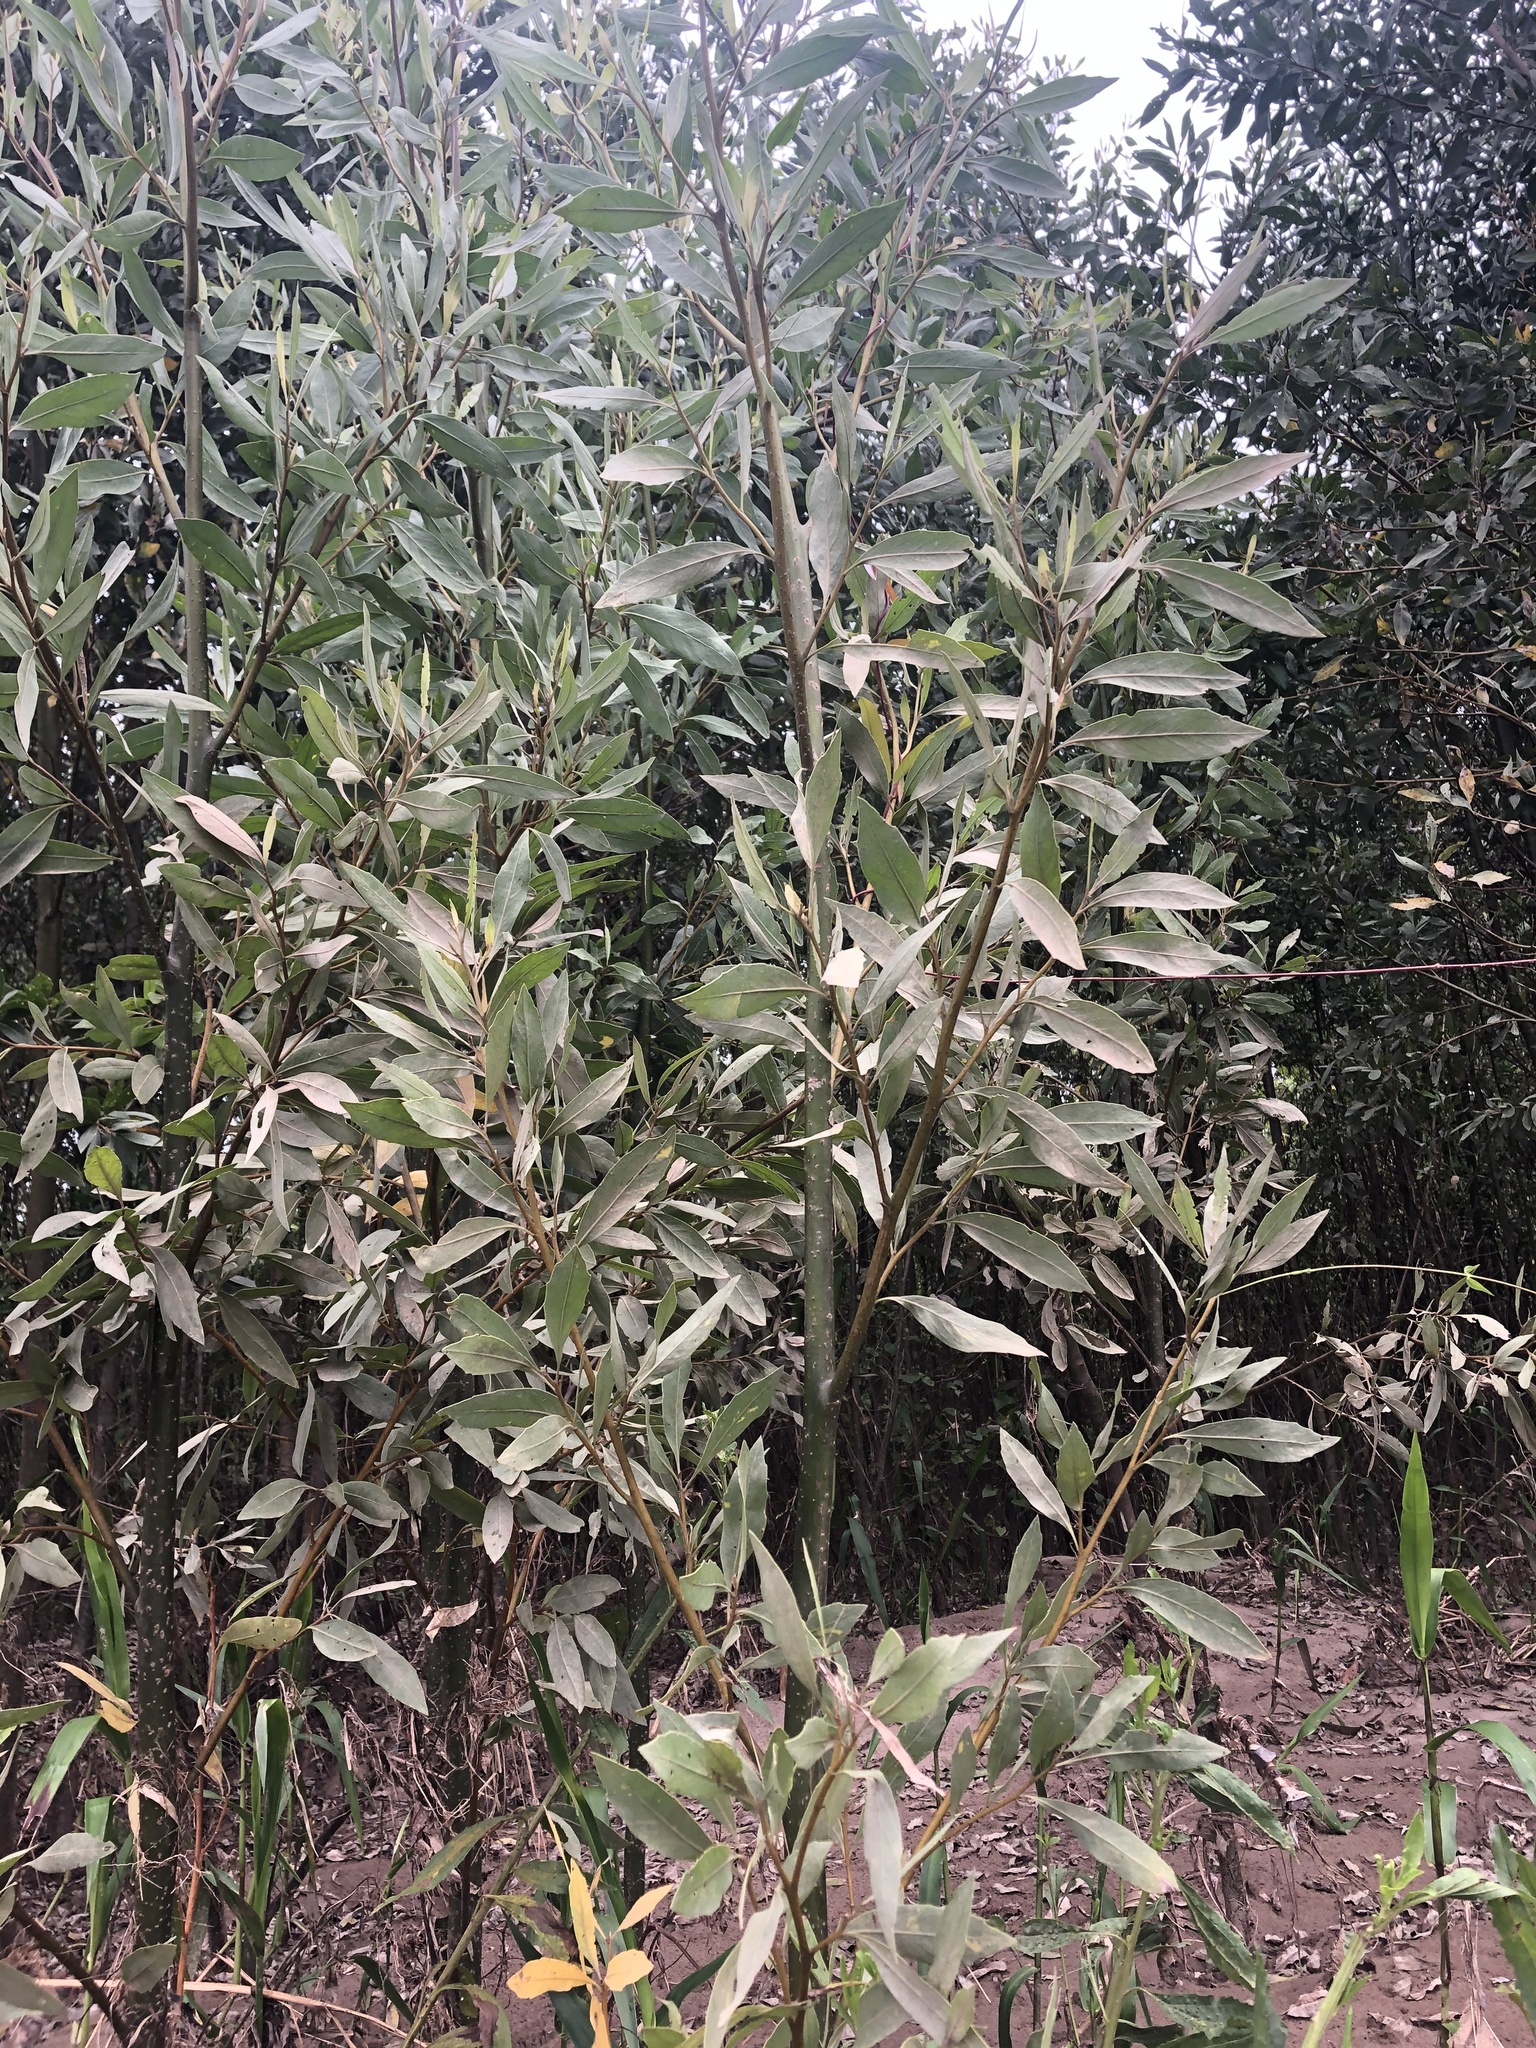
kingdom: Plantae
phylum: Tracheophyta
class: Magnoliopsida
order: Asterales
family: Asteraceae
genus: Tessaria
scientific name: Tessaria integrifolia
